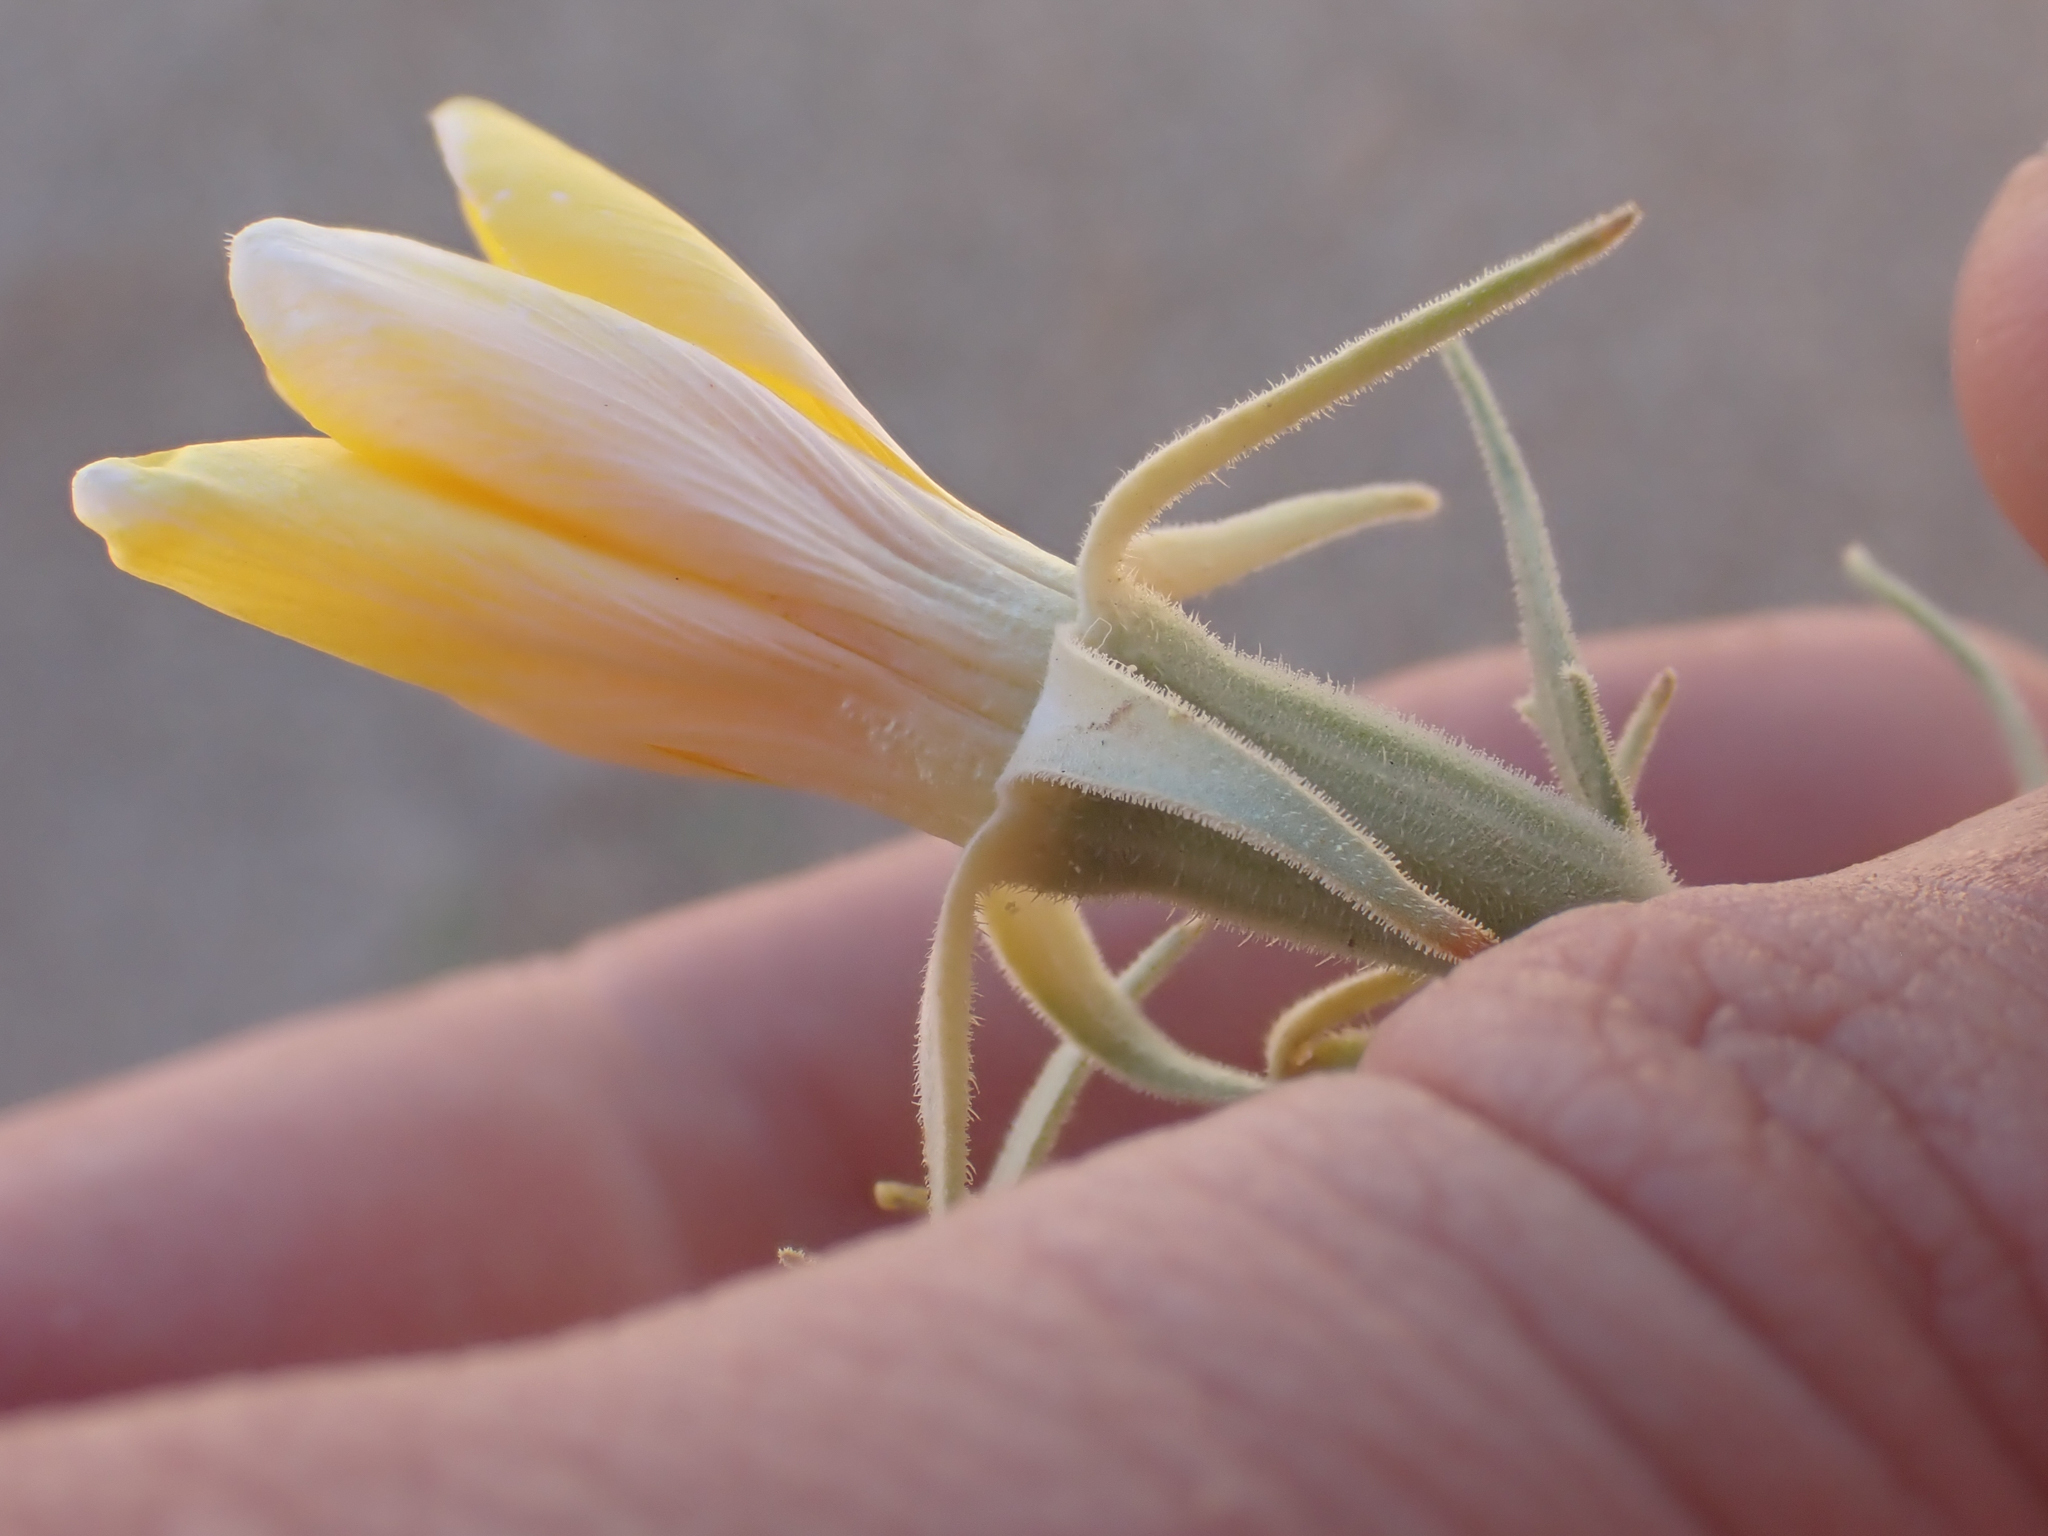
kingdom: Plantae
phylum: Tracheophyta
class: Magnoliopsida
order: Cornales
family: Loasaceae
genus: Mentzelia
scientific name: Mentzelia longiloba
